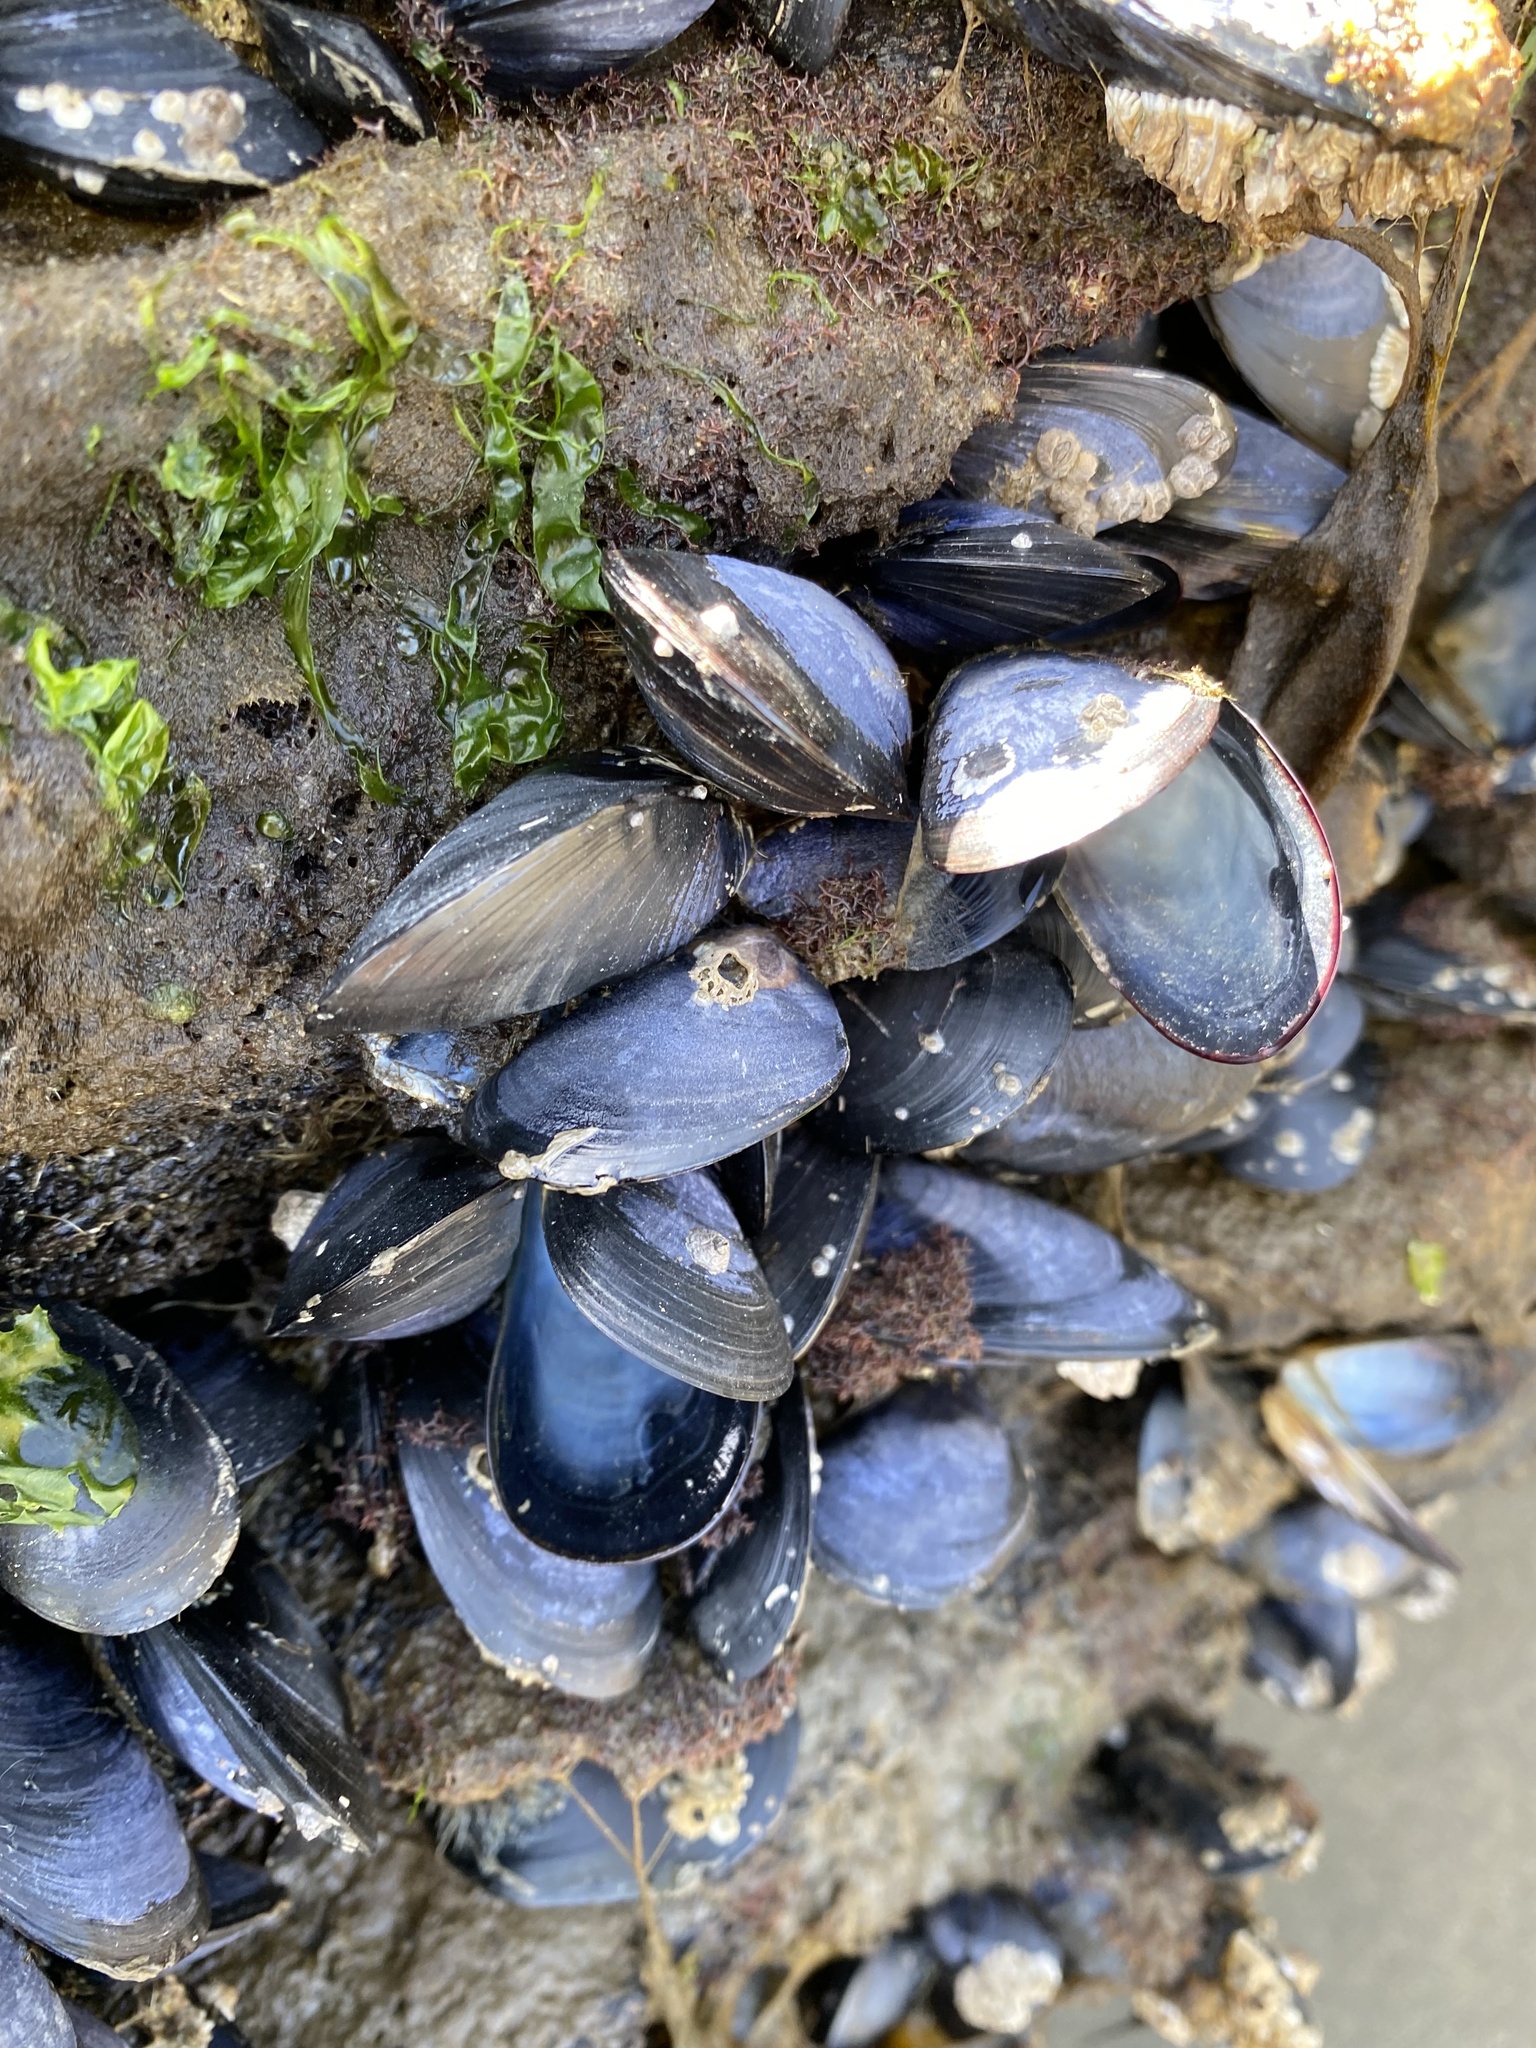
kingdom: Animalia
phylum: Mollusca
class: Bivalvia
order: Mytilida
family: Mytilidae
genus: Mytilus
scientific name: Mytilus
